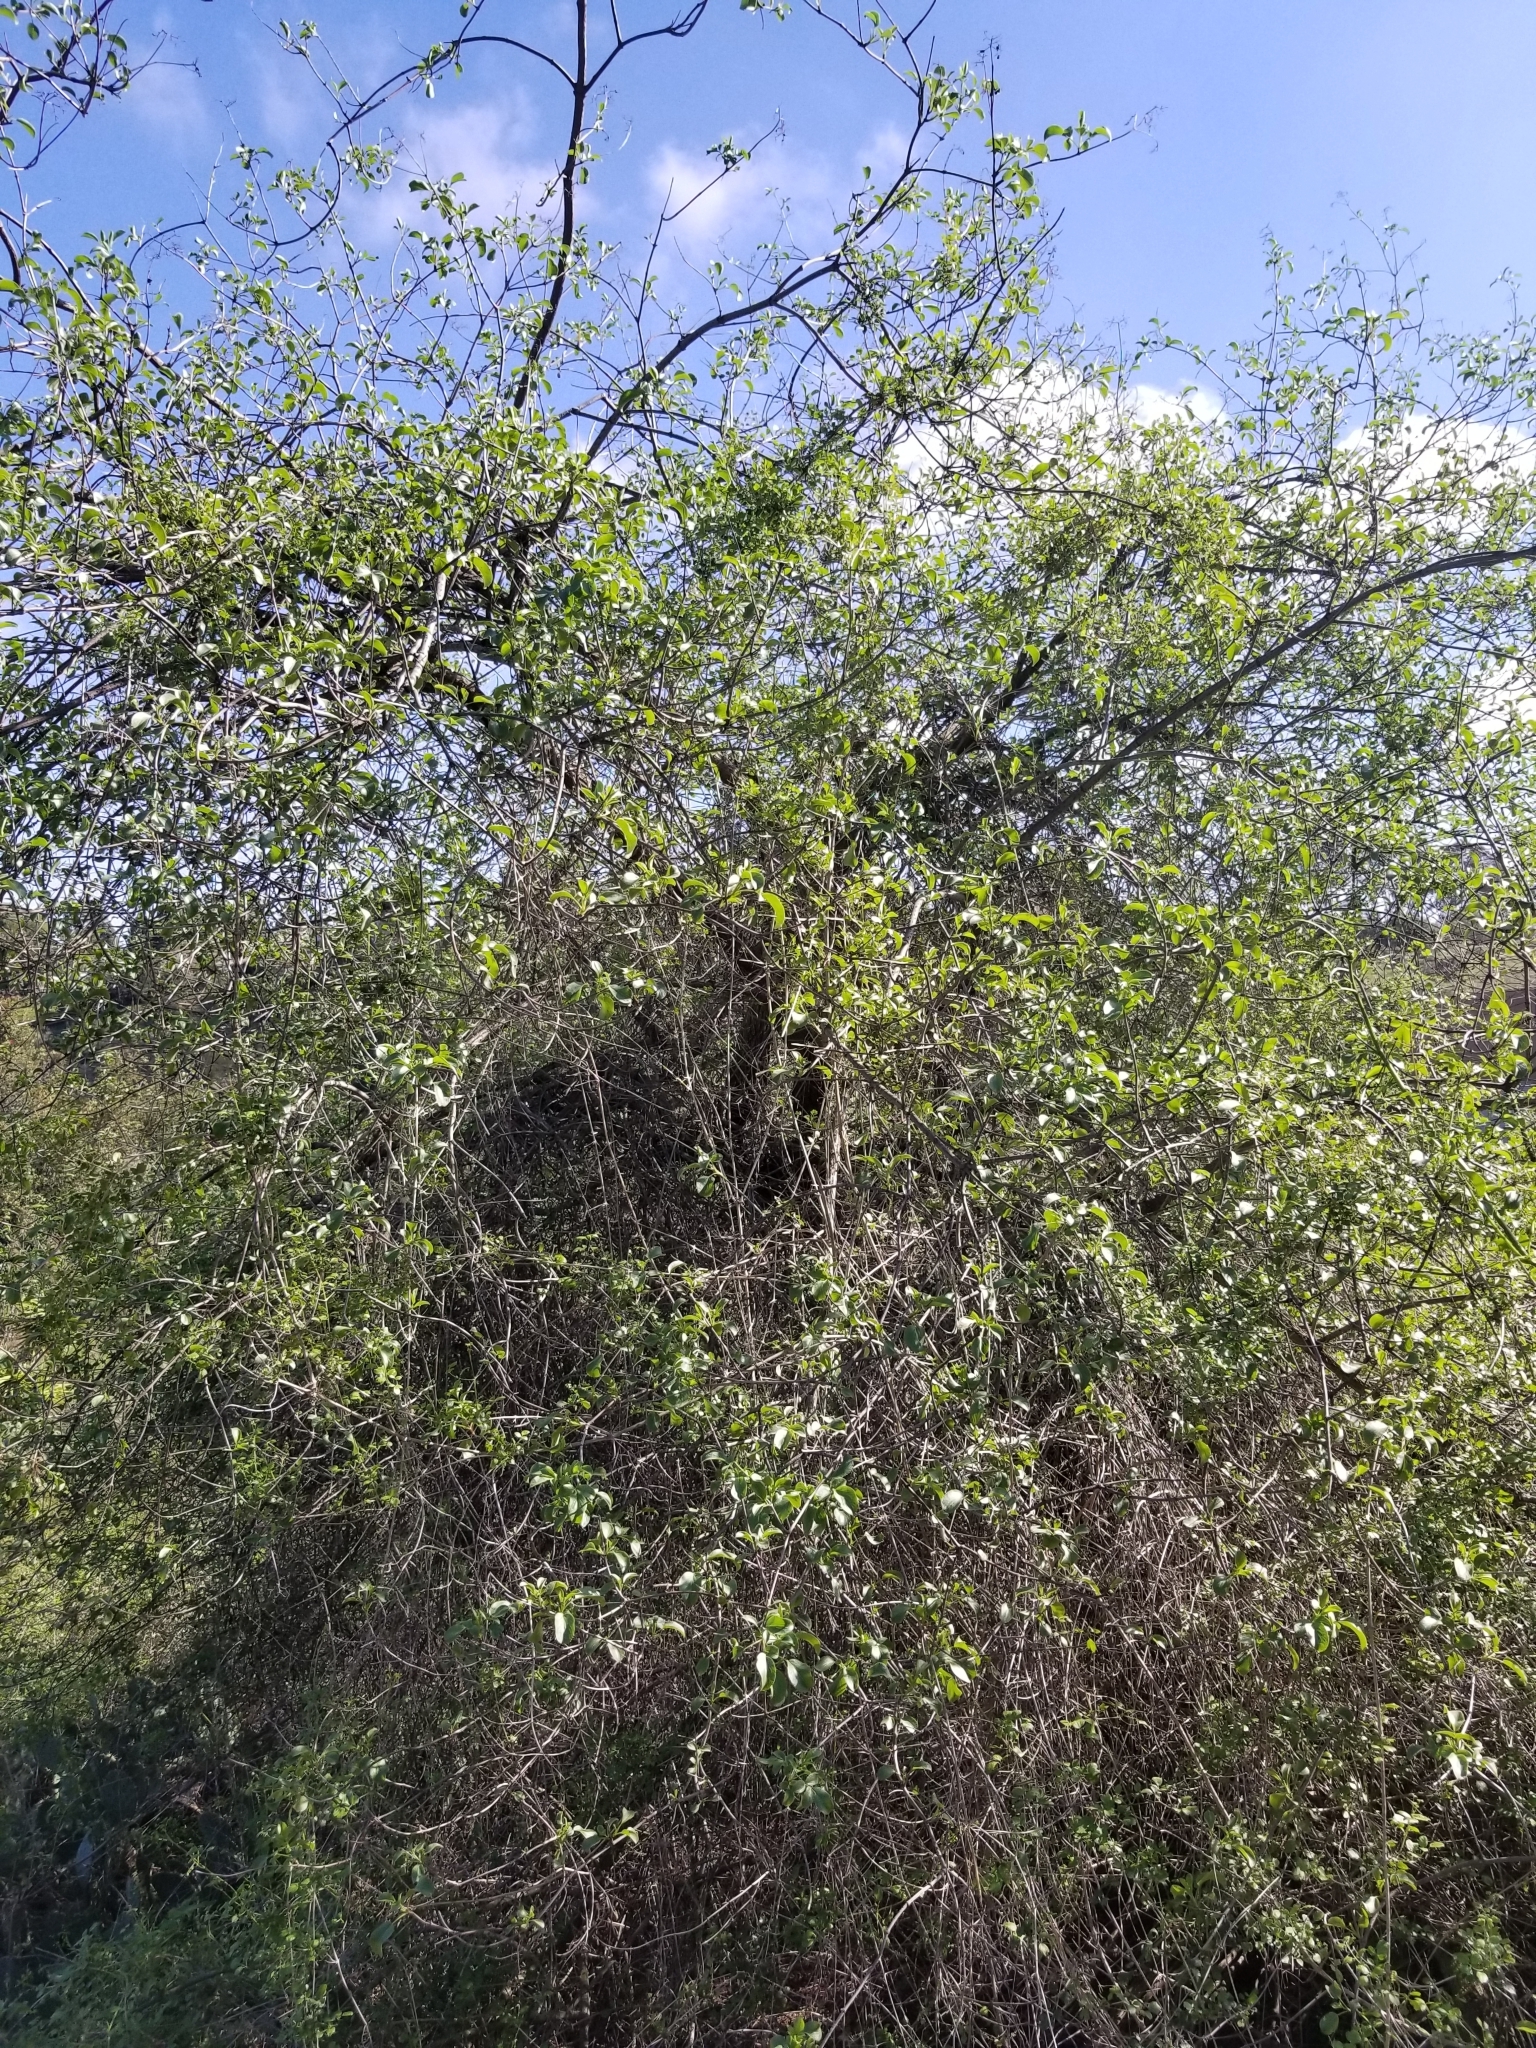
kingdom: Plantae
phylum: Tracheophyta
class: Magnoliopsida
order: Dipsacales
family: Viburnaceae
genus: Sambucus
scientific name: Sambucus cerulea
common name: Blue elder
